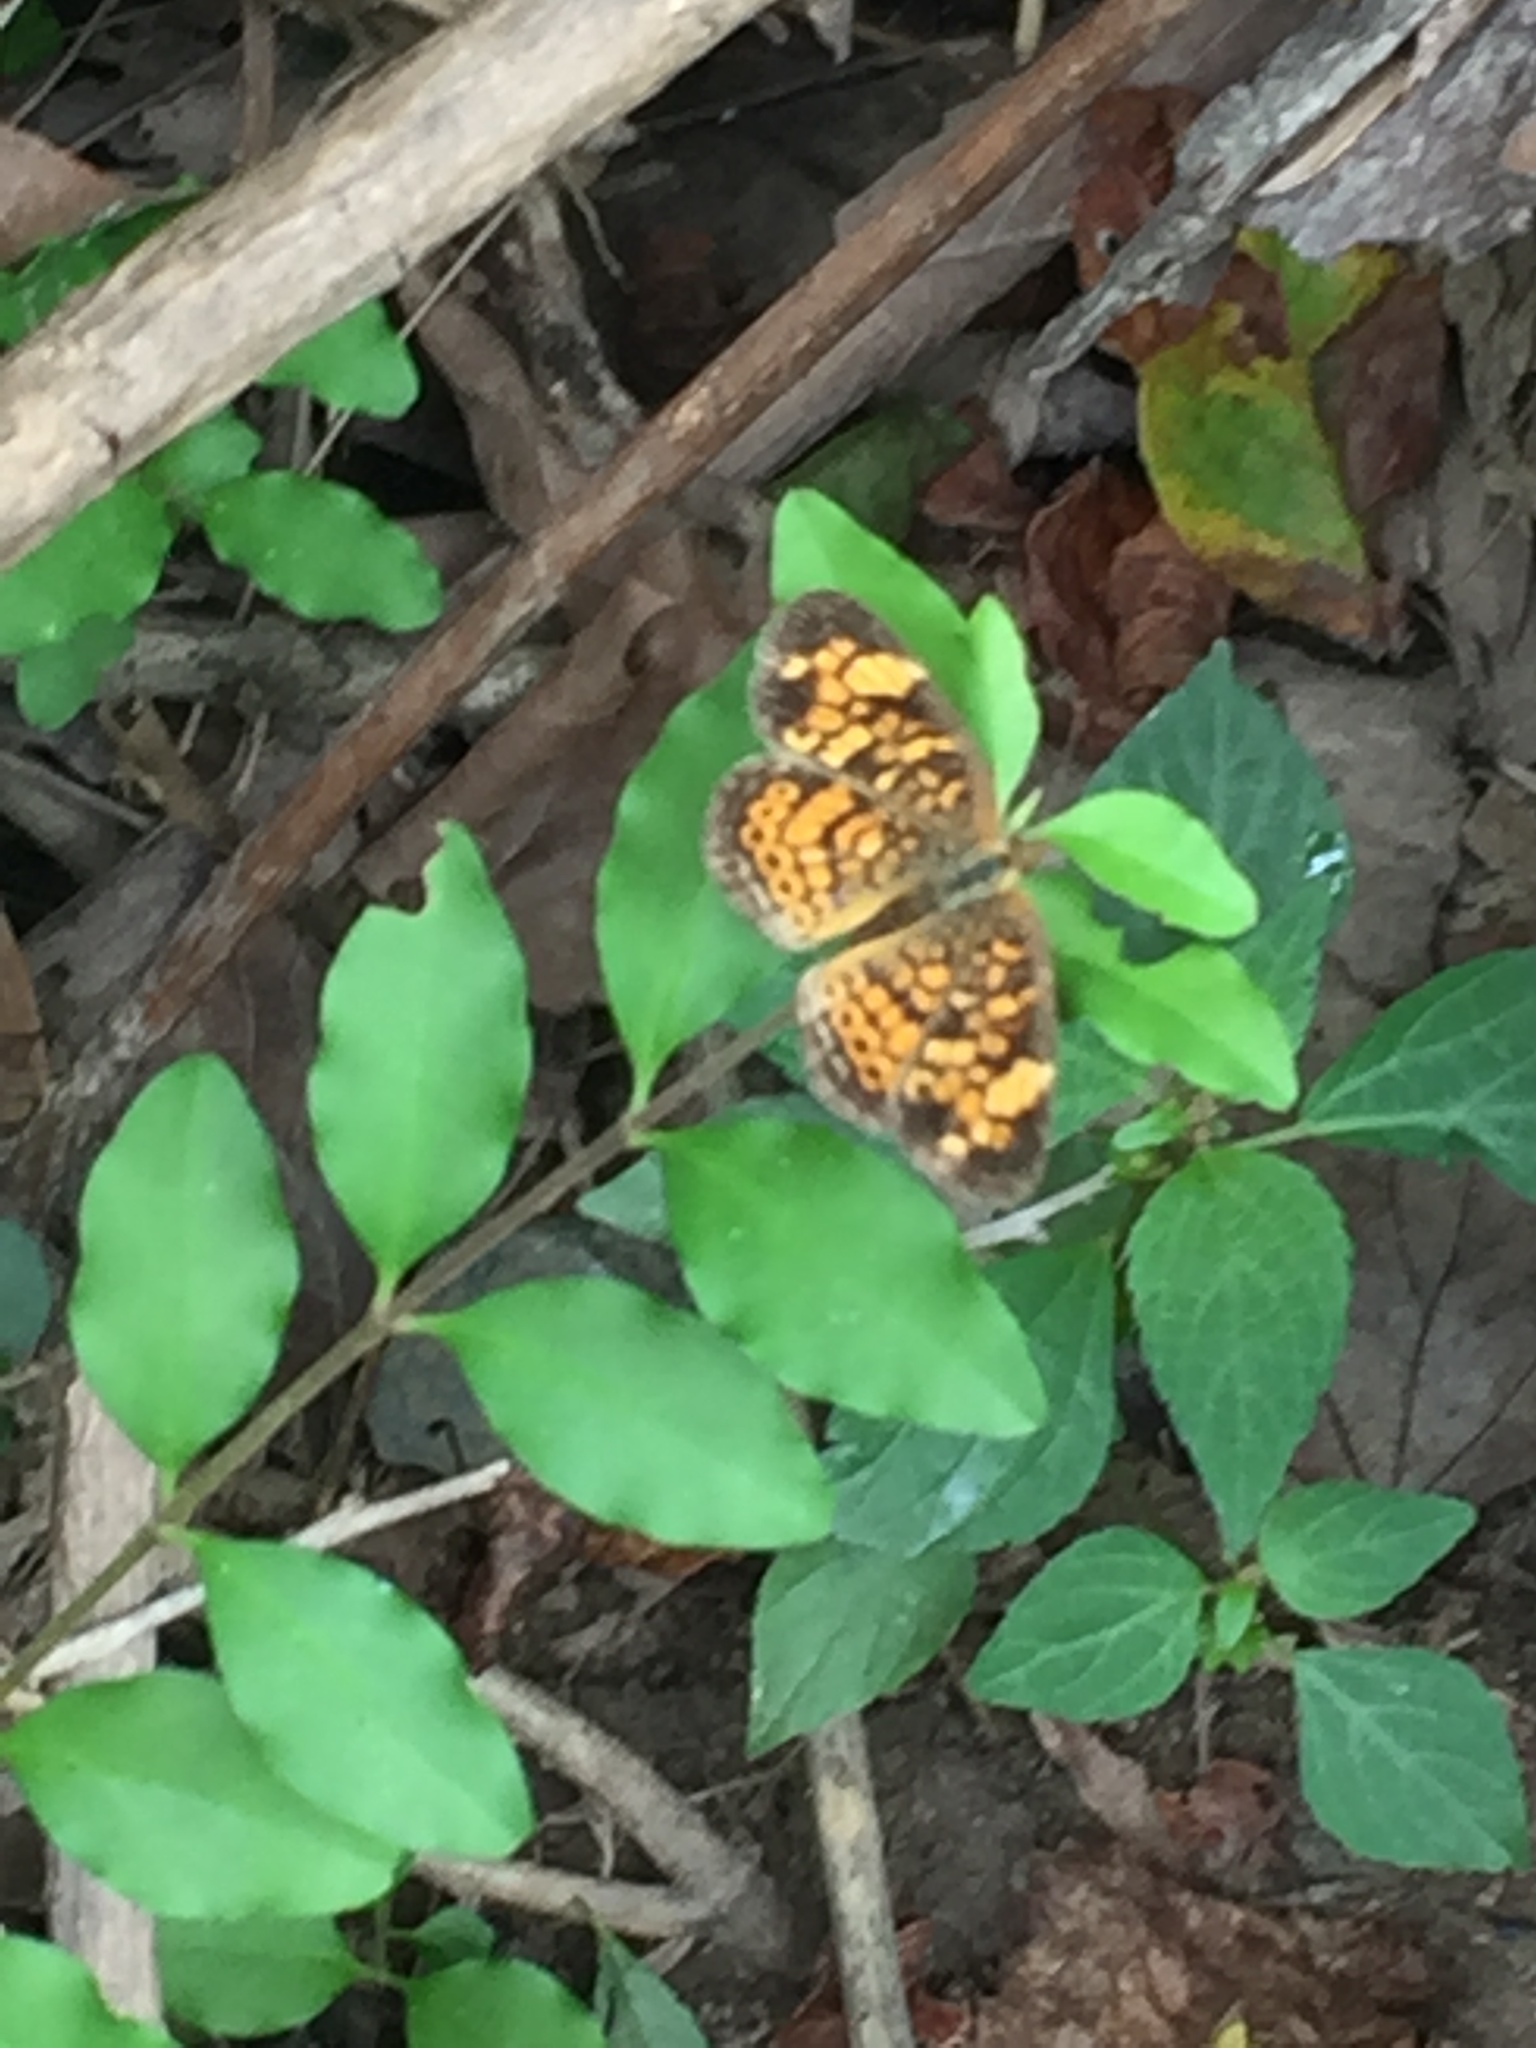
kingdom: Animalia
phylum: Arthropoda
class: Insecta
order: Lepidoptera
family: Nymphalidae
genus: Phyciodes
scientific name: Phyciodes tharos
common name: Pearl crescent
